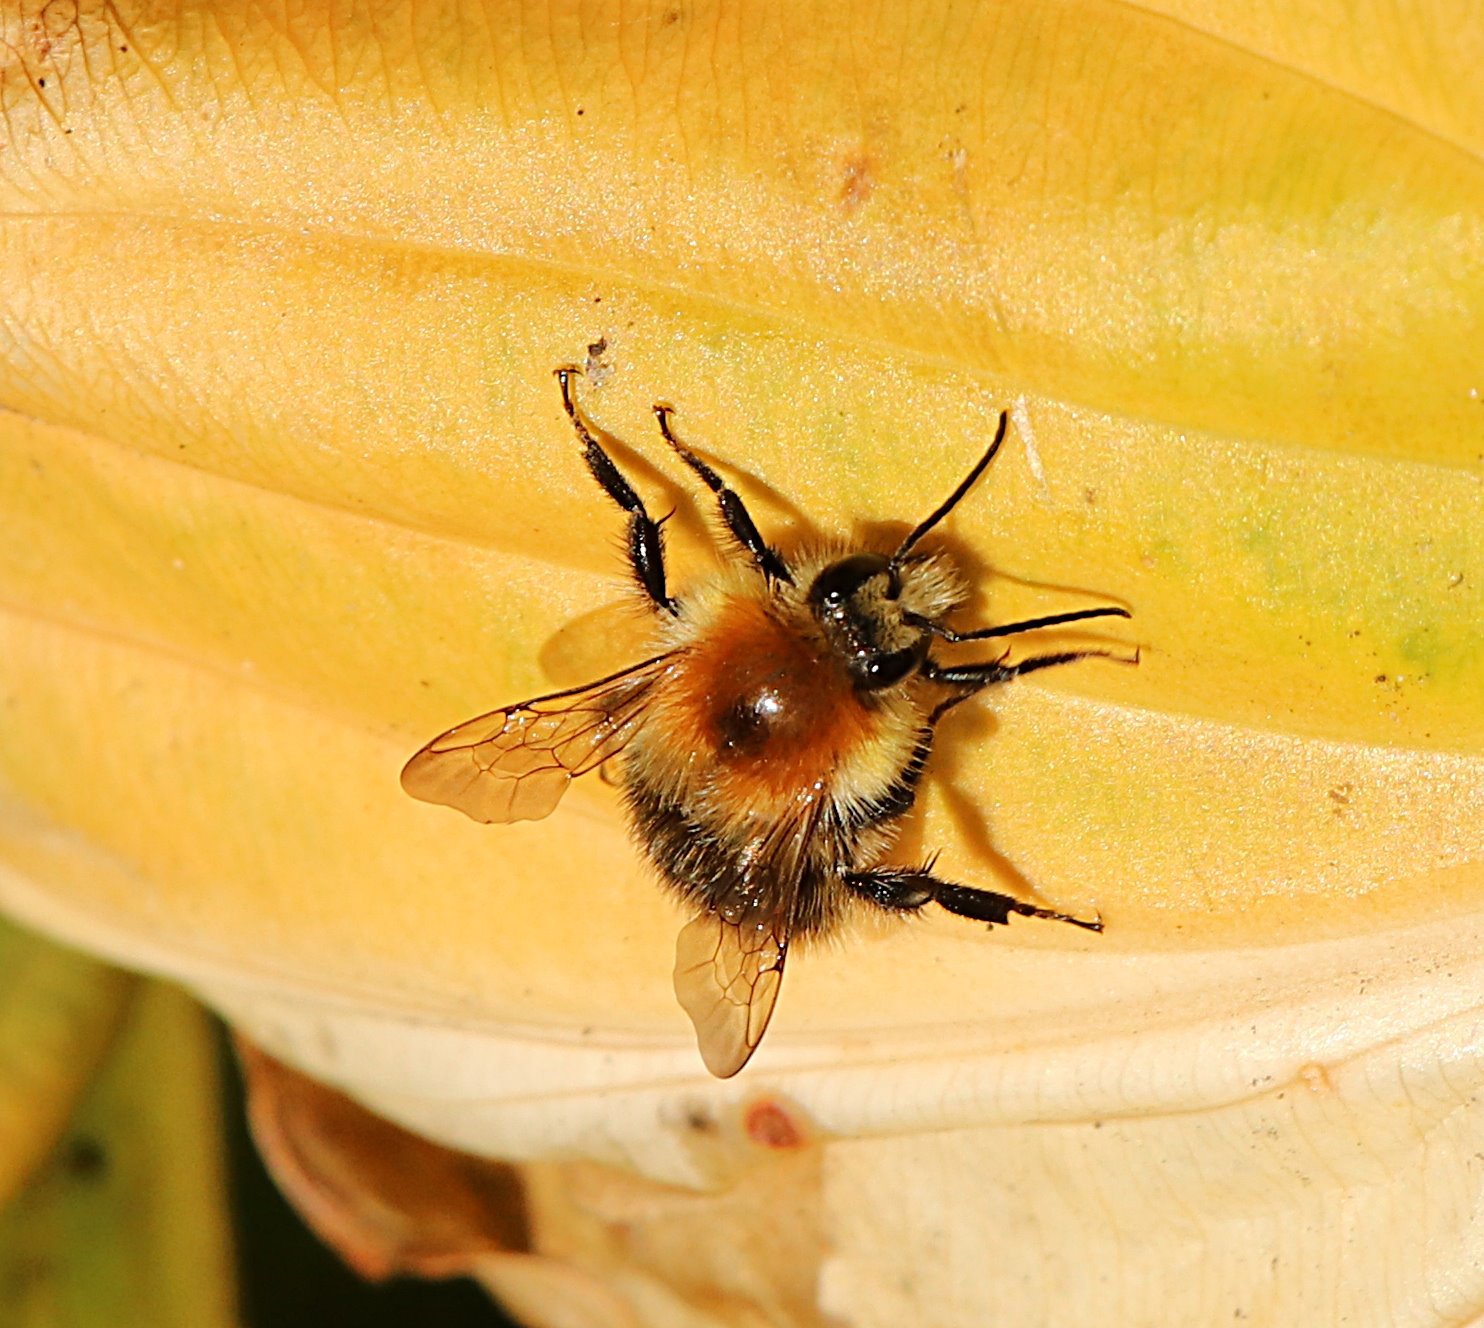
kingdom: Animalia
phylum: Arthropoda
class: Insecta
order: Hymenoptera
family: Apidae
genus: Bombus
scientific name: Bombus pascuorum
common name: Common carder bee
